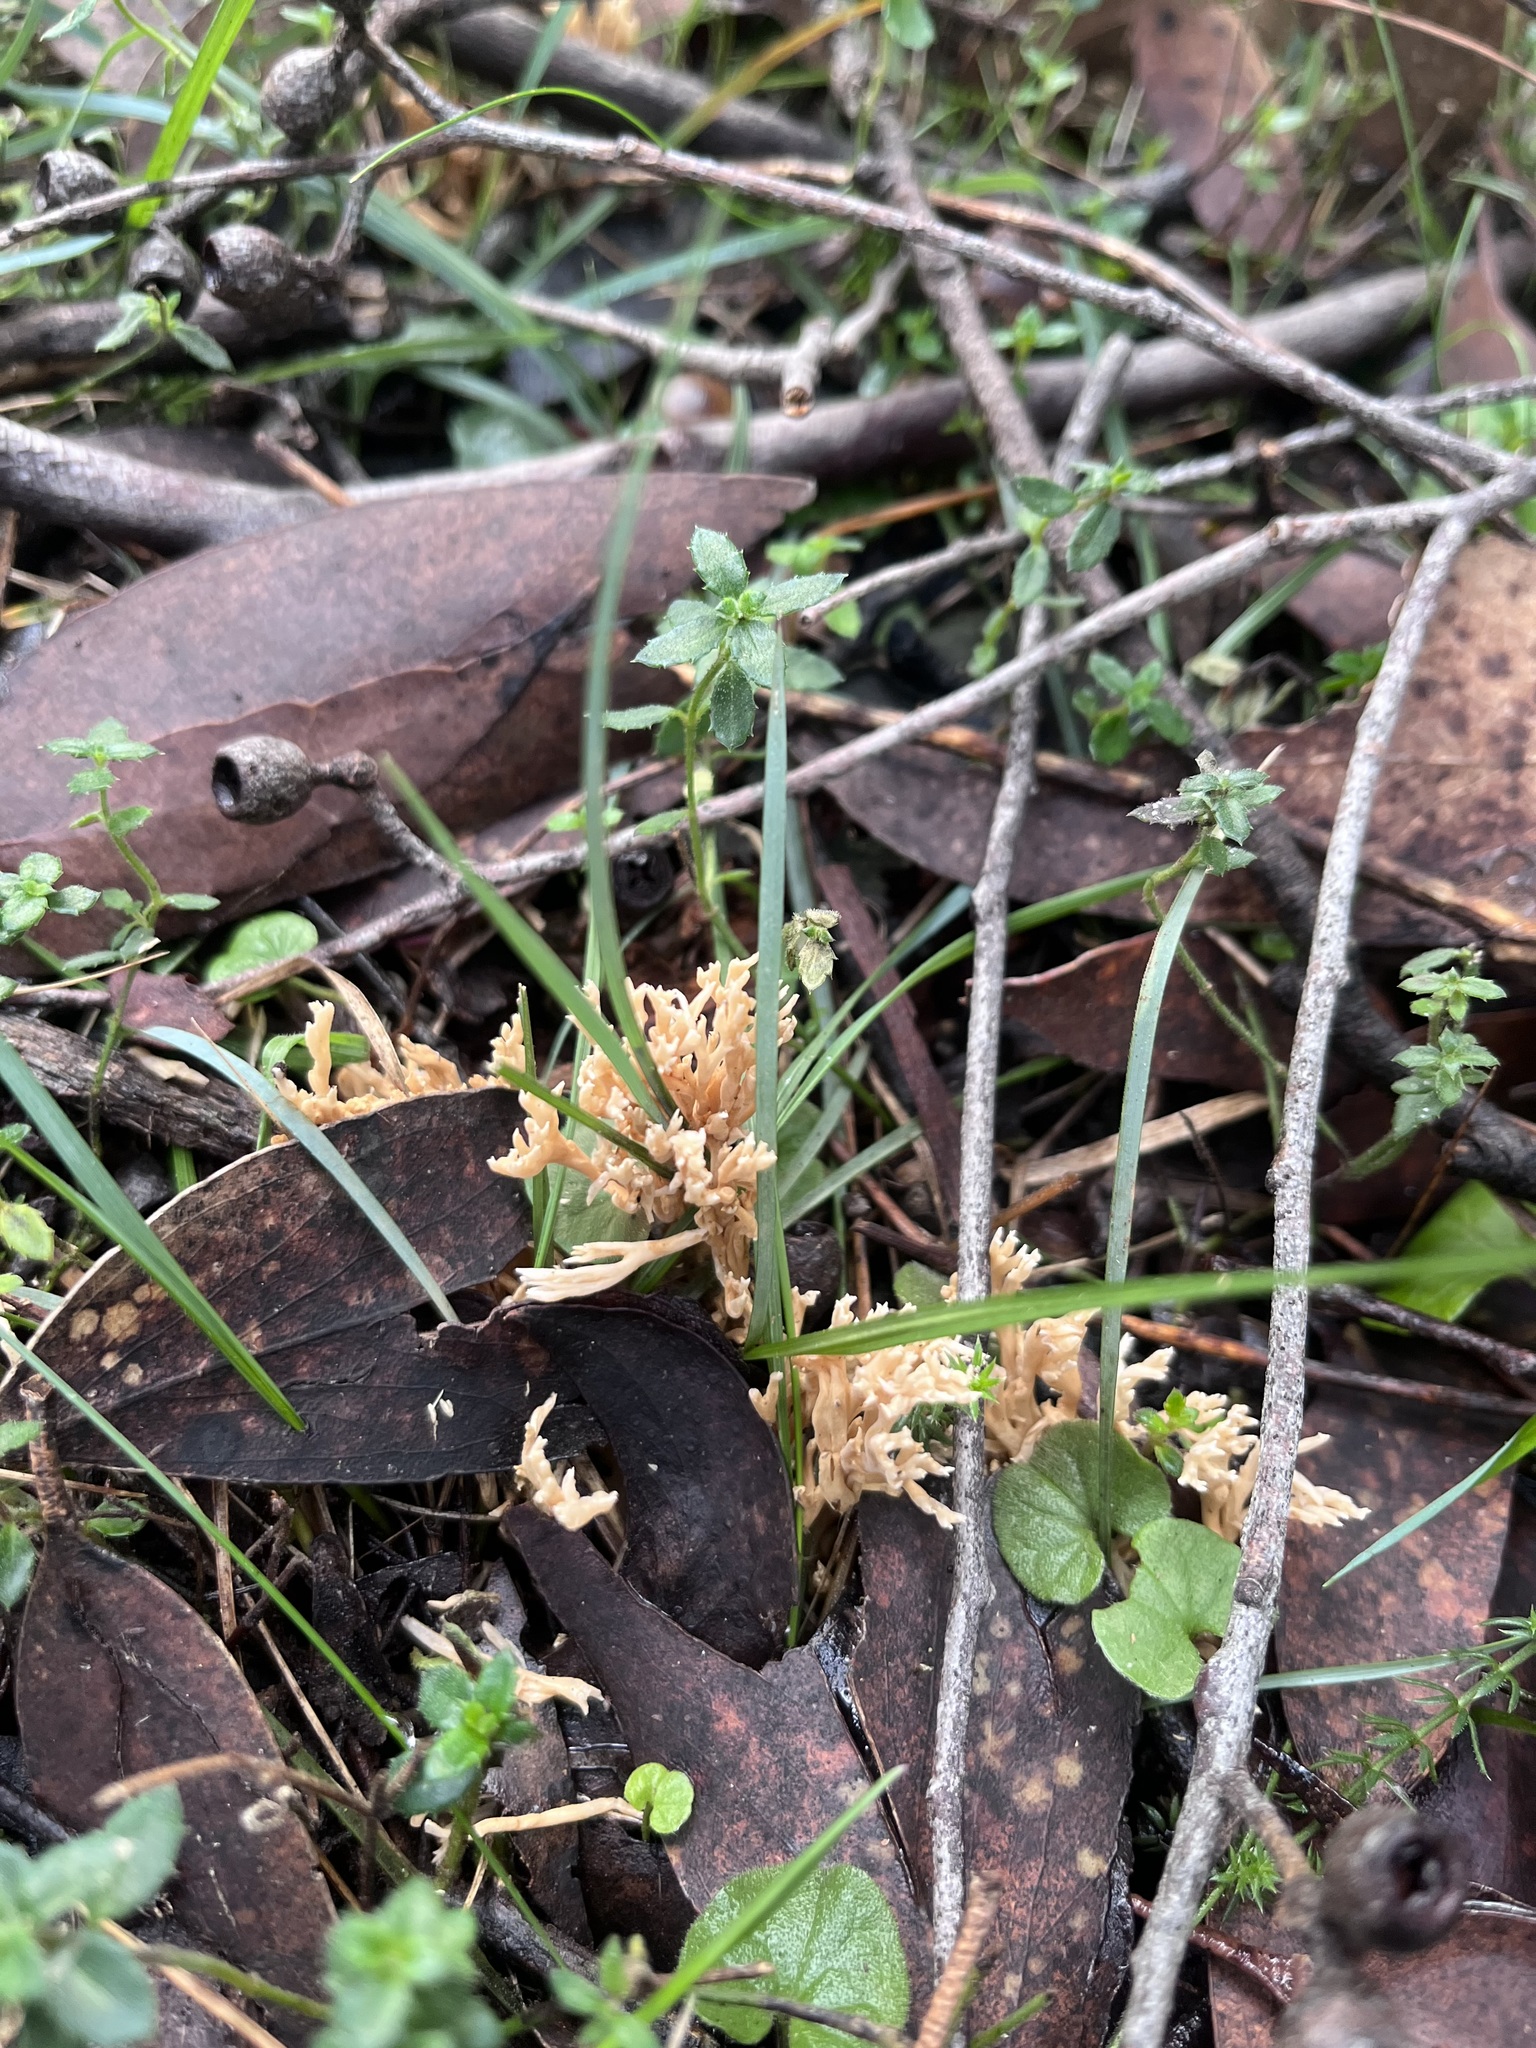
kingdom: Fungi
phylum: Basidiomycota
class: Agaricomycetes
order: Gomphales
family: Gomphaceae
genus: Ramaria
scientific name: Ramaria filicicola
